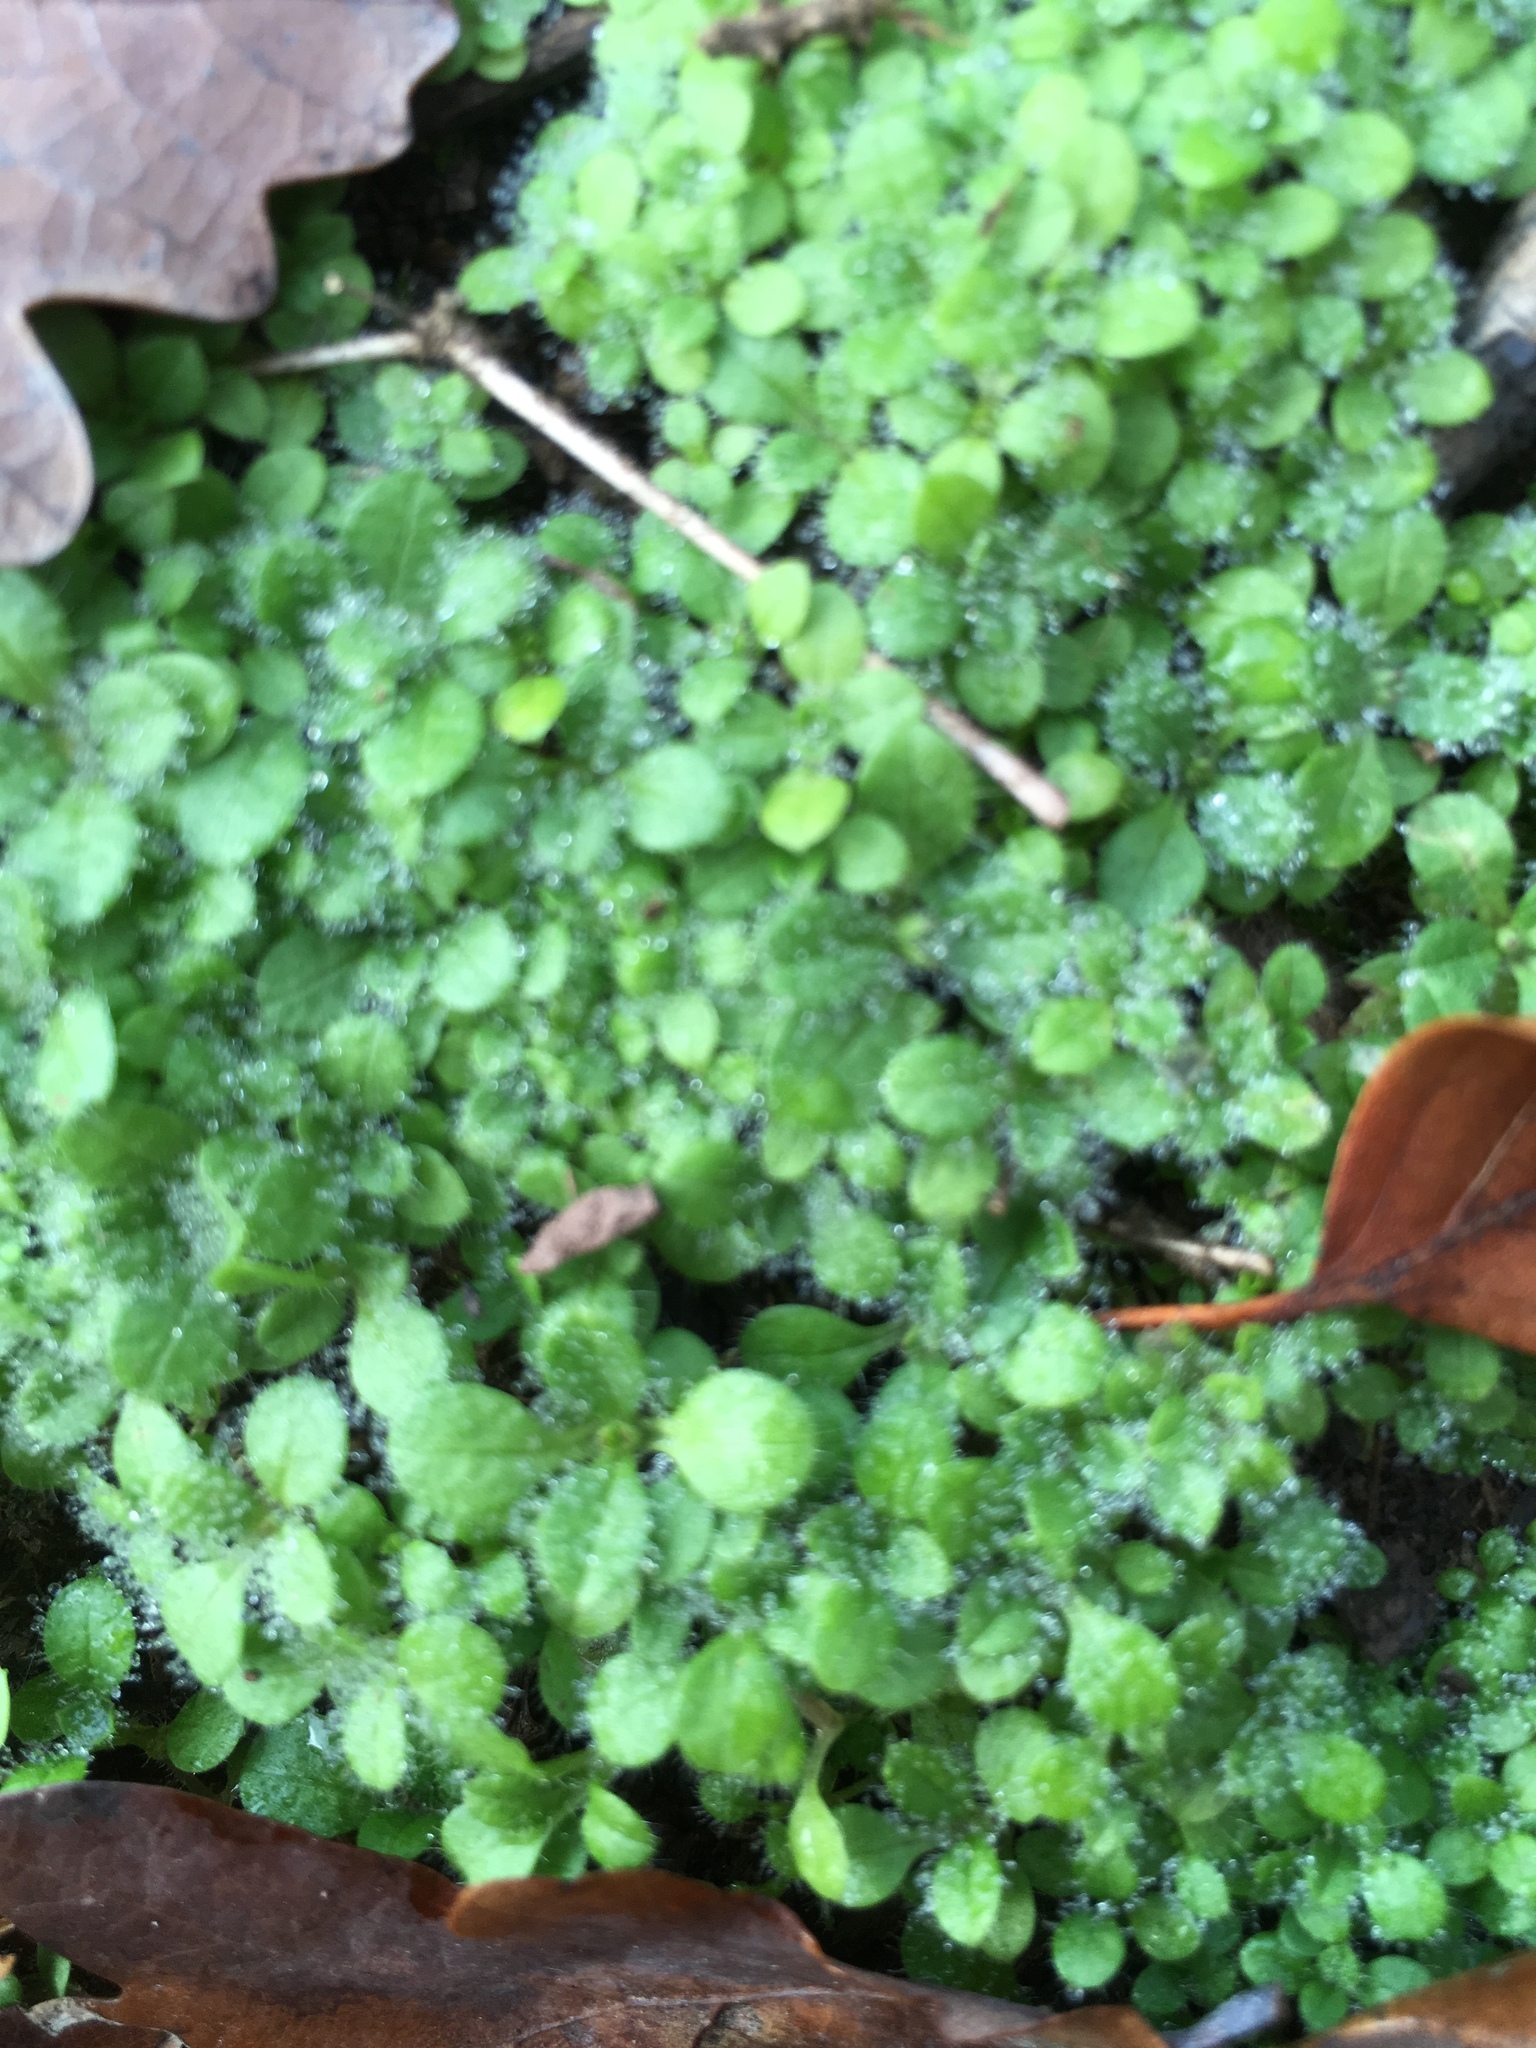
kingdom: Plantae
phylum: Tracheophyta
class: Magnoliopsida
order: Lamiales
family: Plantaginaceae
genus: Veronica
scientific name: Veronica hederifolia
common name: Ivy-leaved speedwell
